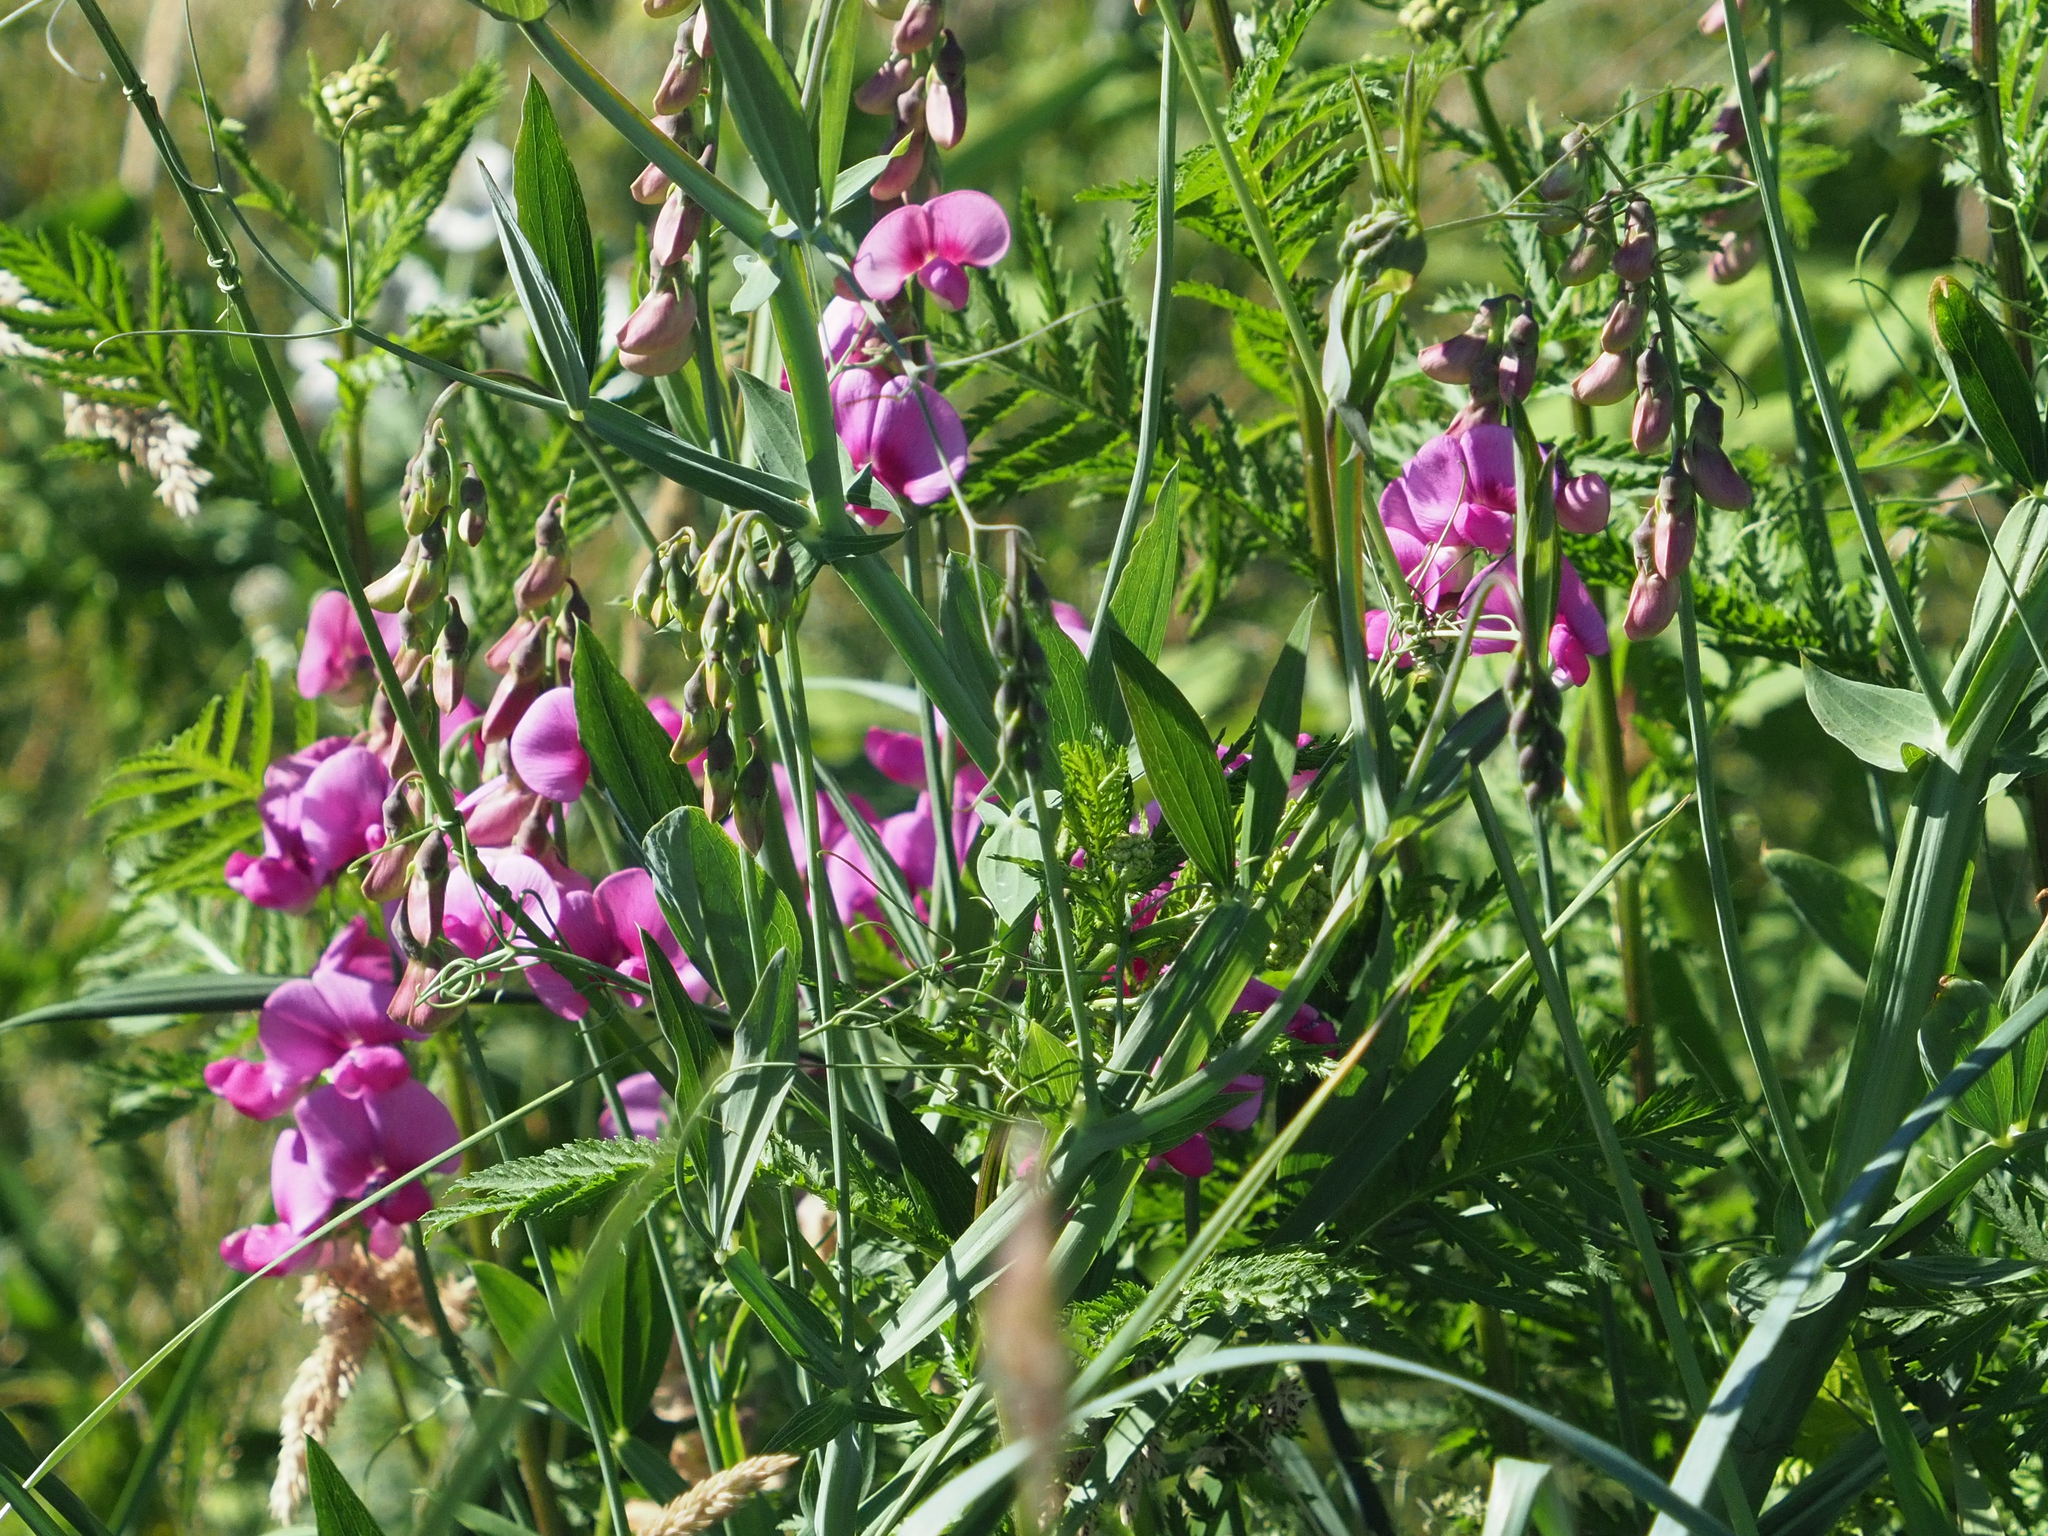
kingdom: Plantae
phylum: Tracheophyta
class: Magnoliopsida
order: Fabales
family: Fabaceae
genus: Lathyrus
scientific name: Lathyrus latifolius
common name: Perennial pea
